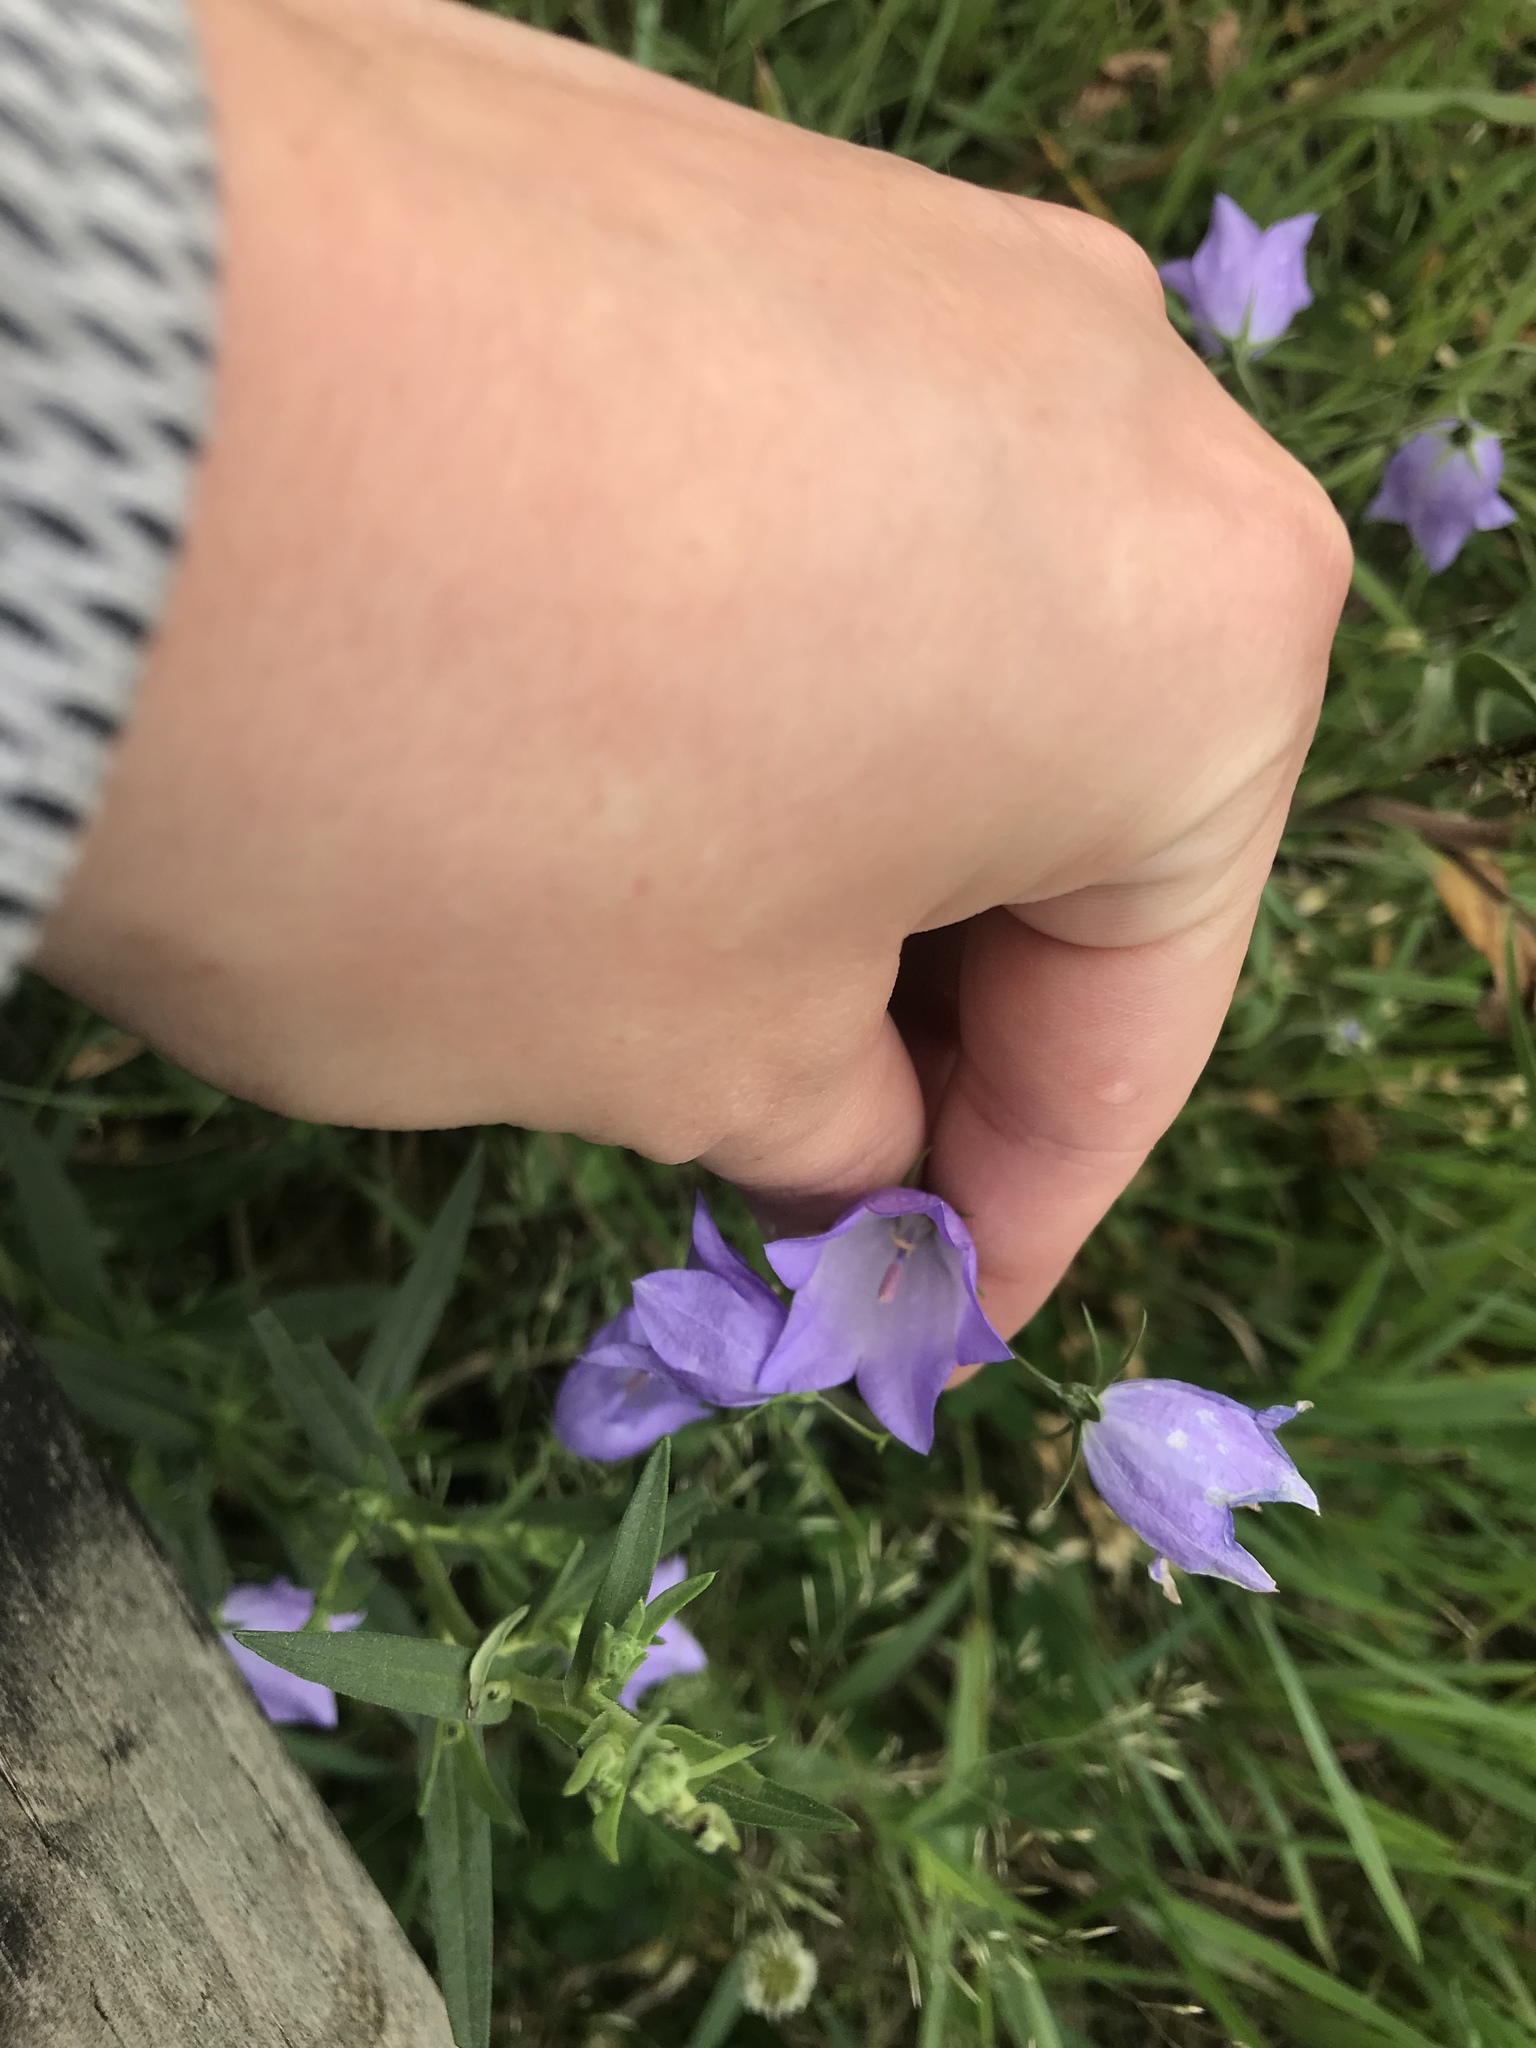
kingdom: Plantae
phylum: Tracheophyta
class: Magnoliopsida
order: Asterales
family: Campanulaceae
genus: Campanula
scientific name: Campanula
